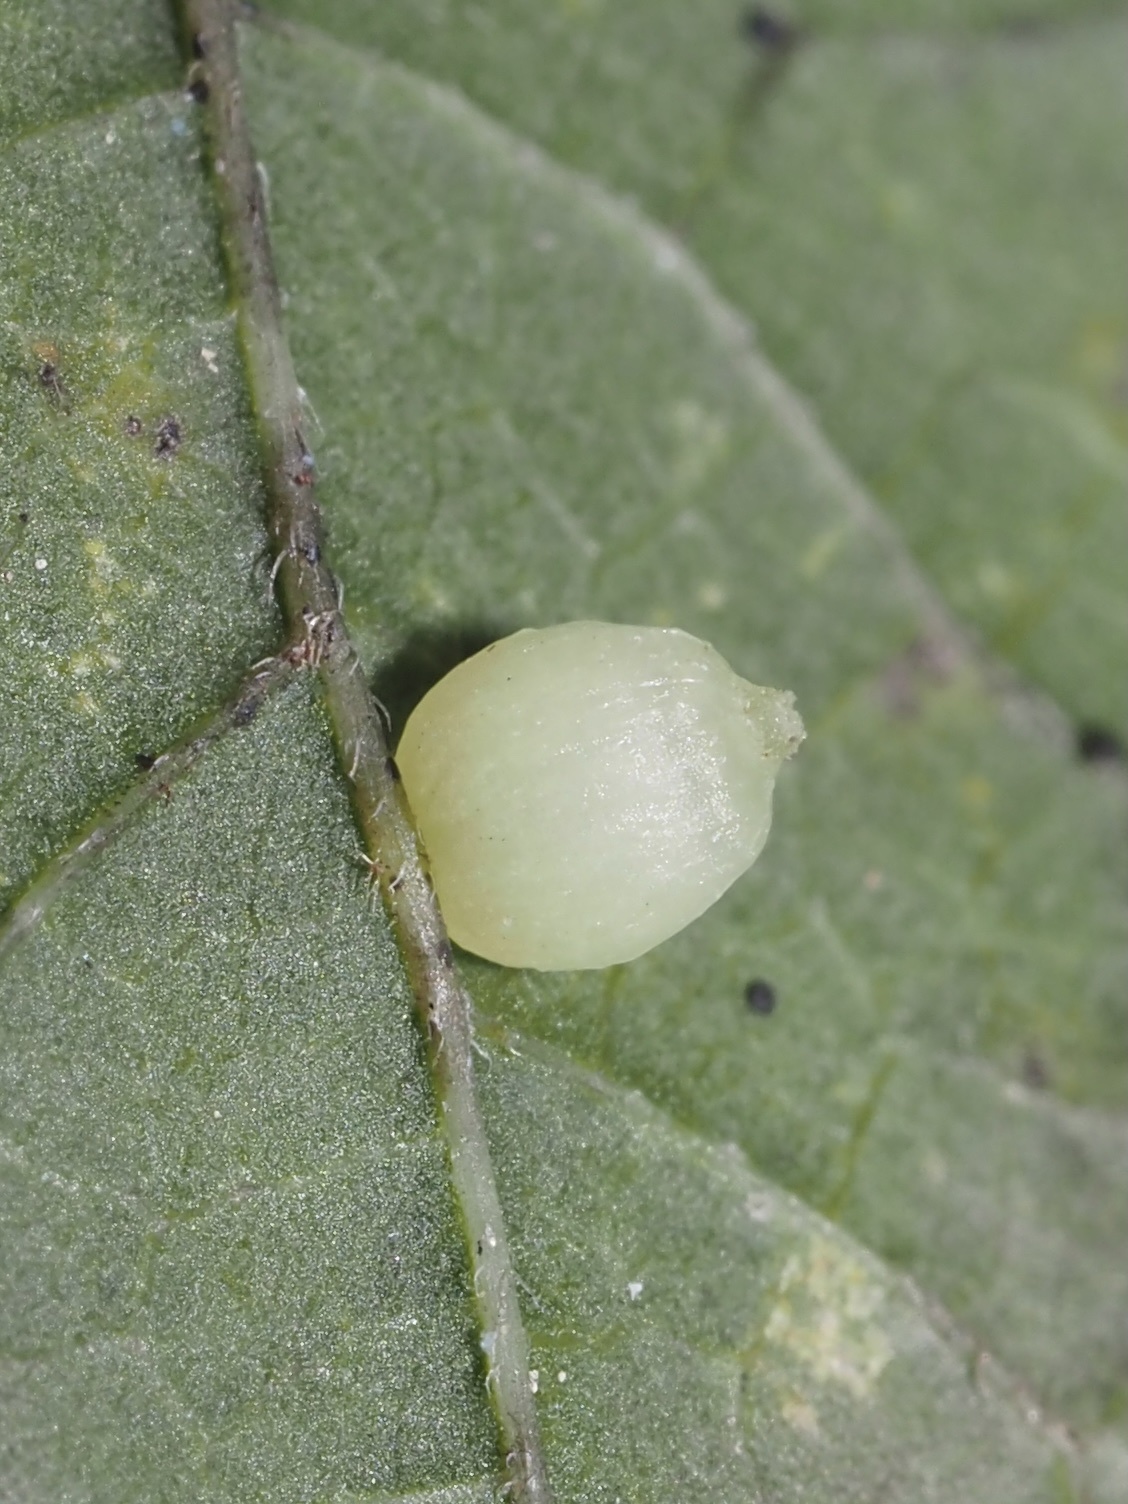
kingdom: Animalia
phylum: Arthropoda
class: Insecta
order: Diptera
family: Cecidomyiidae
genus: Celticecis
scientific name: Celticecis globosa
